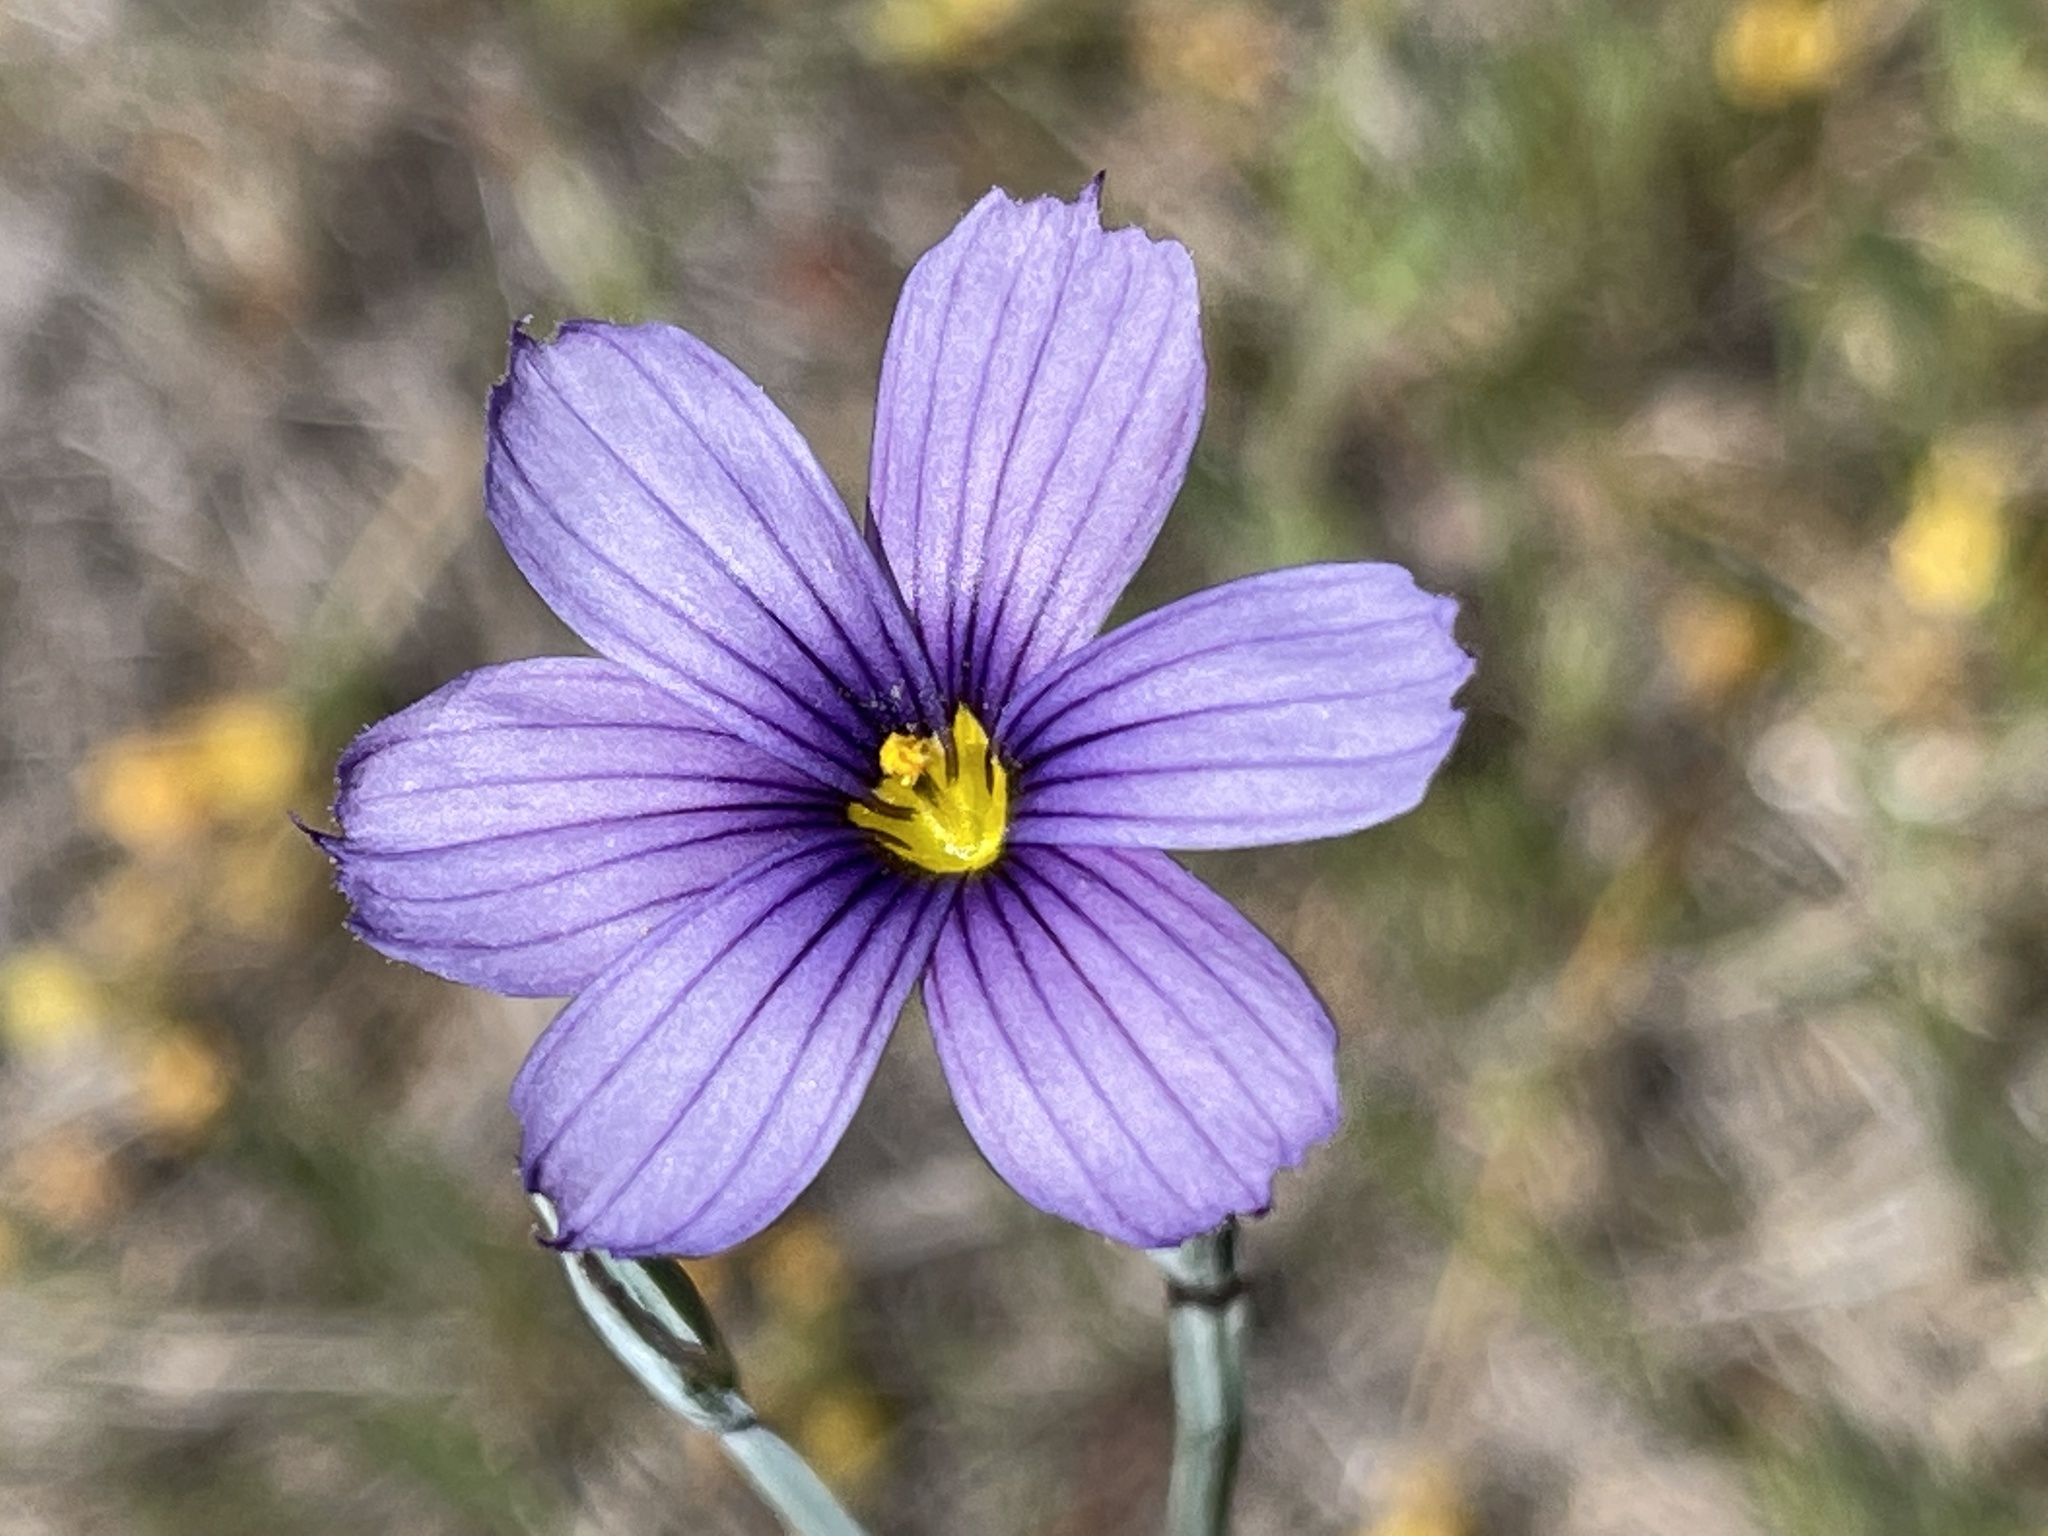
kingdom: Plantae
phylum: Tracheophyta
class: Liliopsida
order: Asparagales
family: Iridaceae
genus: Sisyrinchium
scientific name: Sisyrinchium bellum
